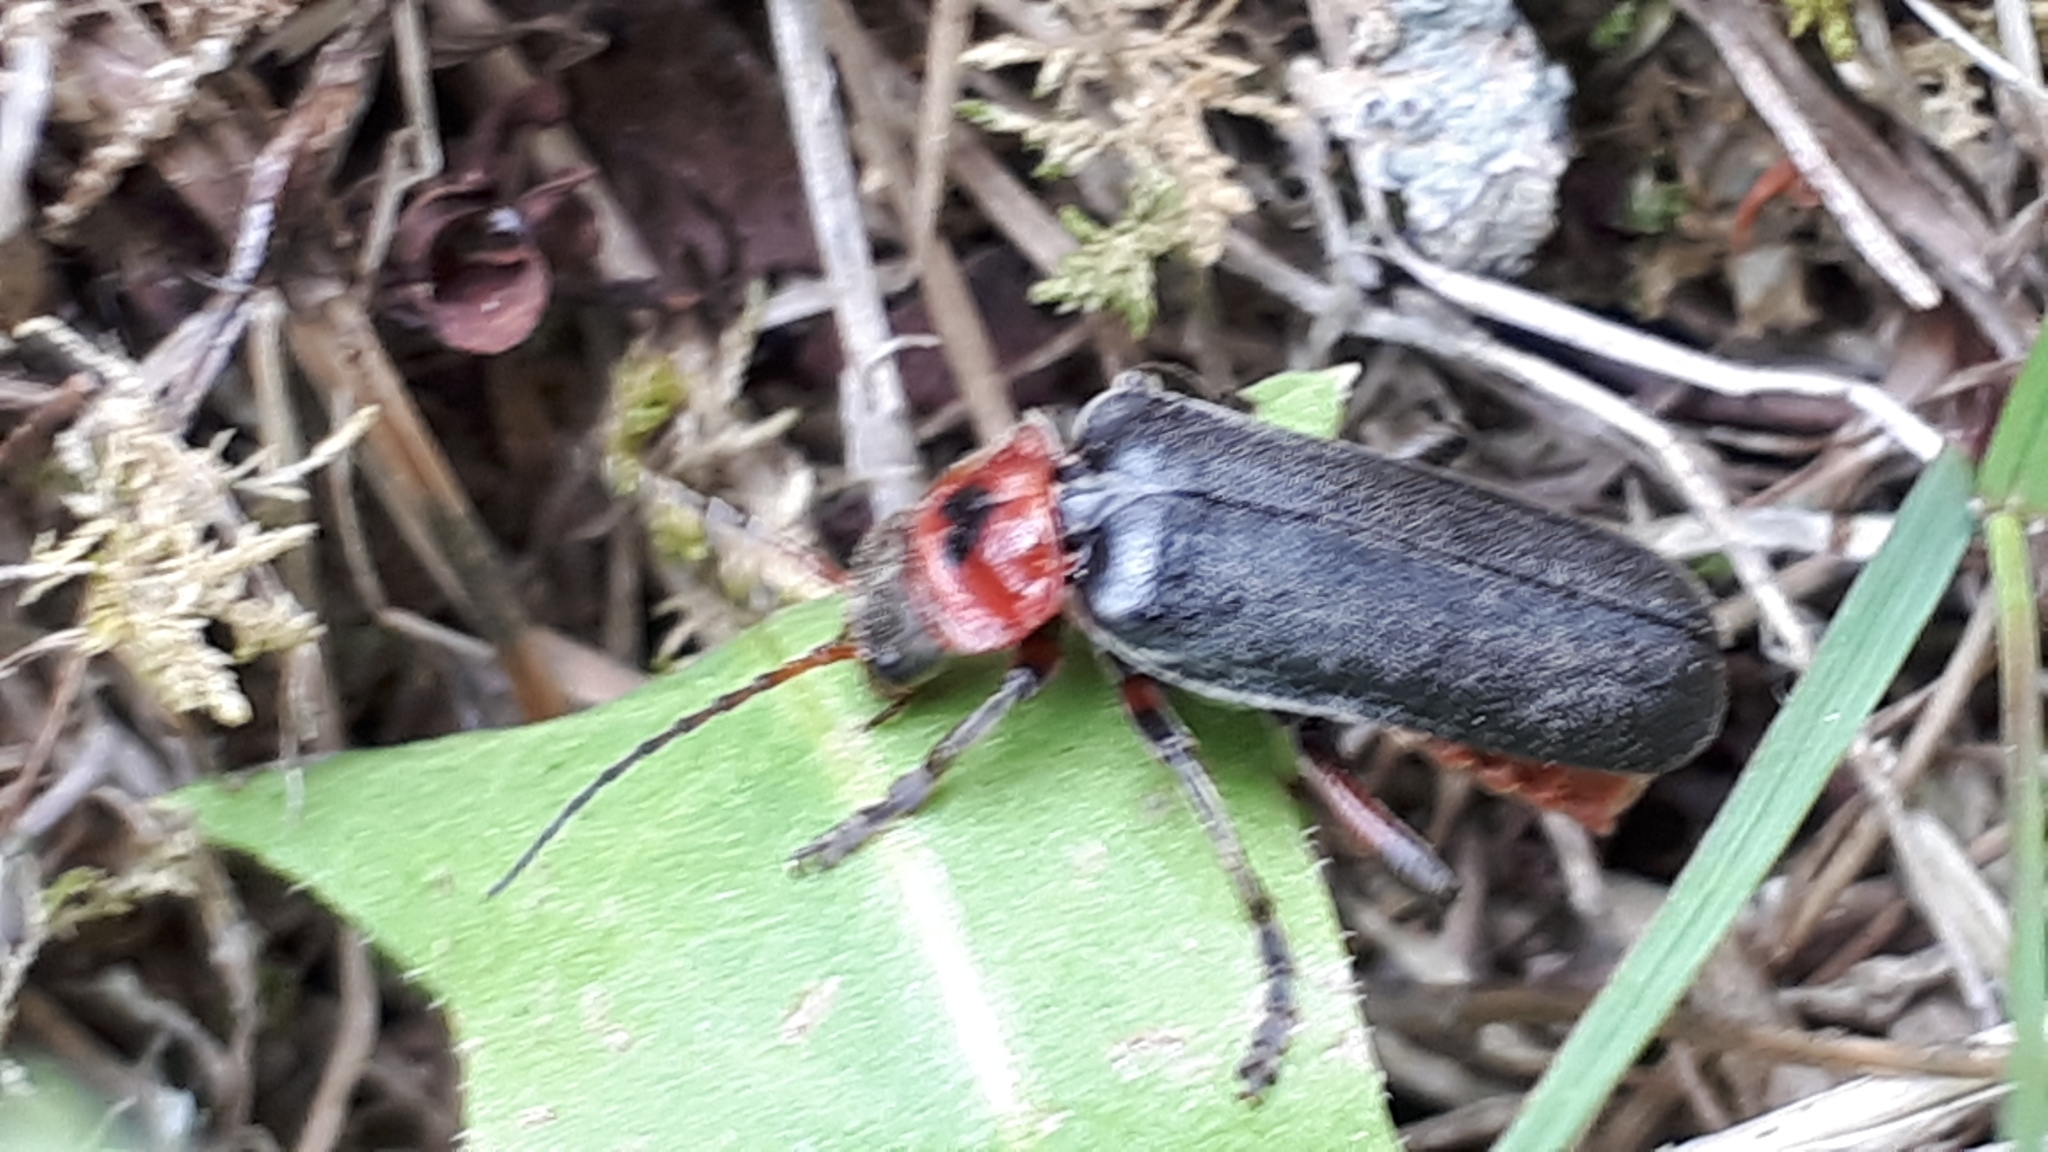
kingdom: Animalia
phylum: Arthropoda
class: Insecta
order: Coleoptera
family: Cantharidae
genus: Cantharis
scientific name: Cantharis rustica
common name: Soldier beetle
